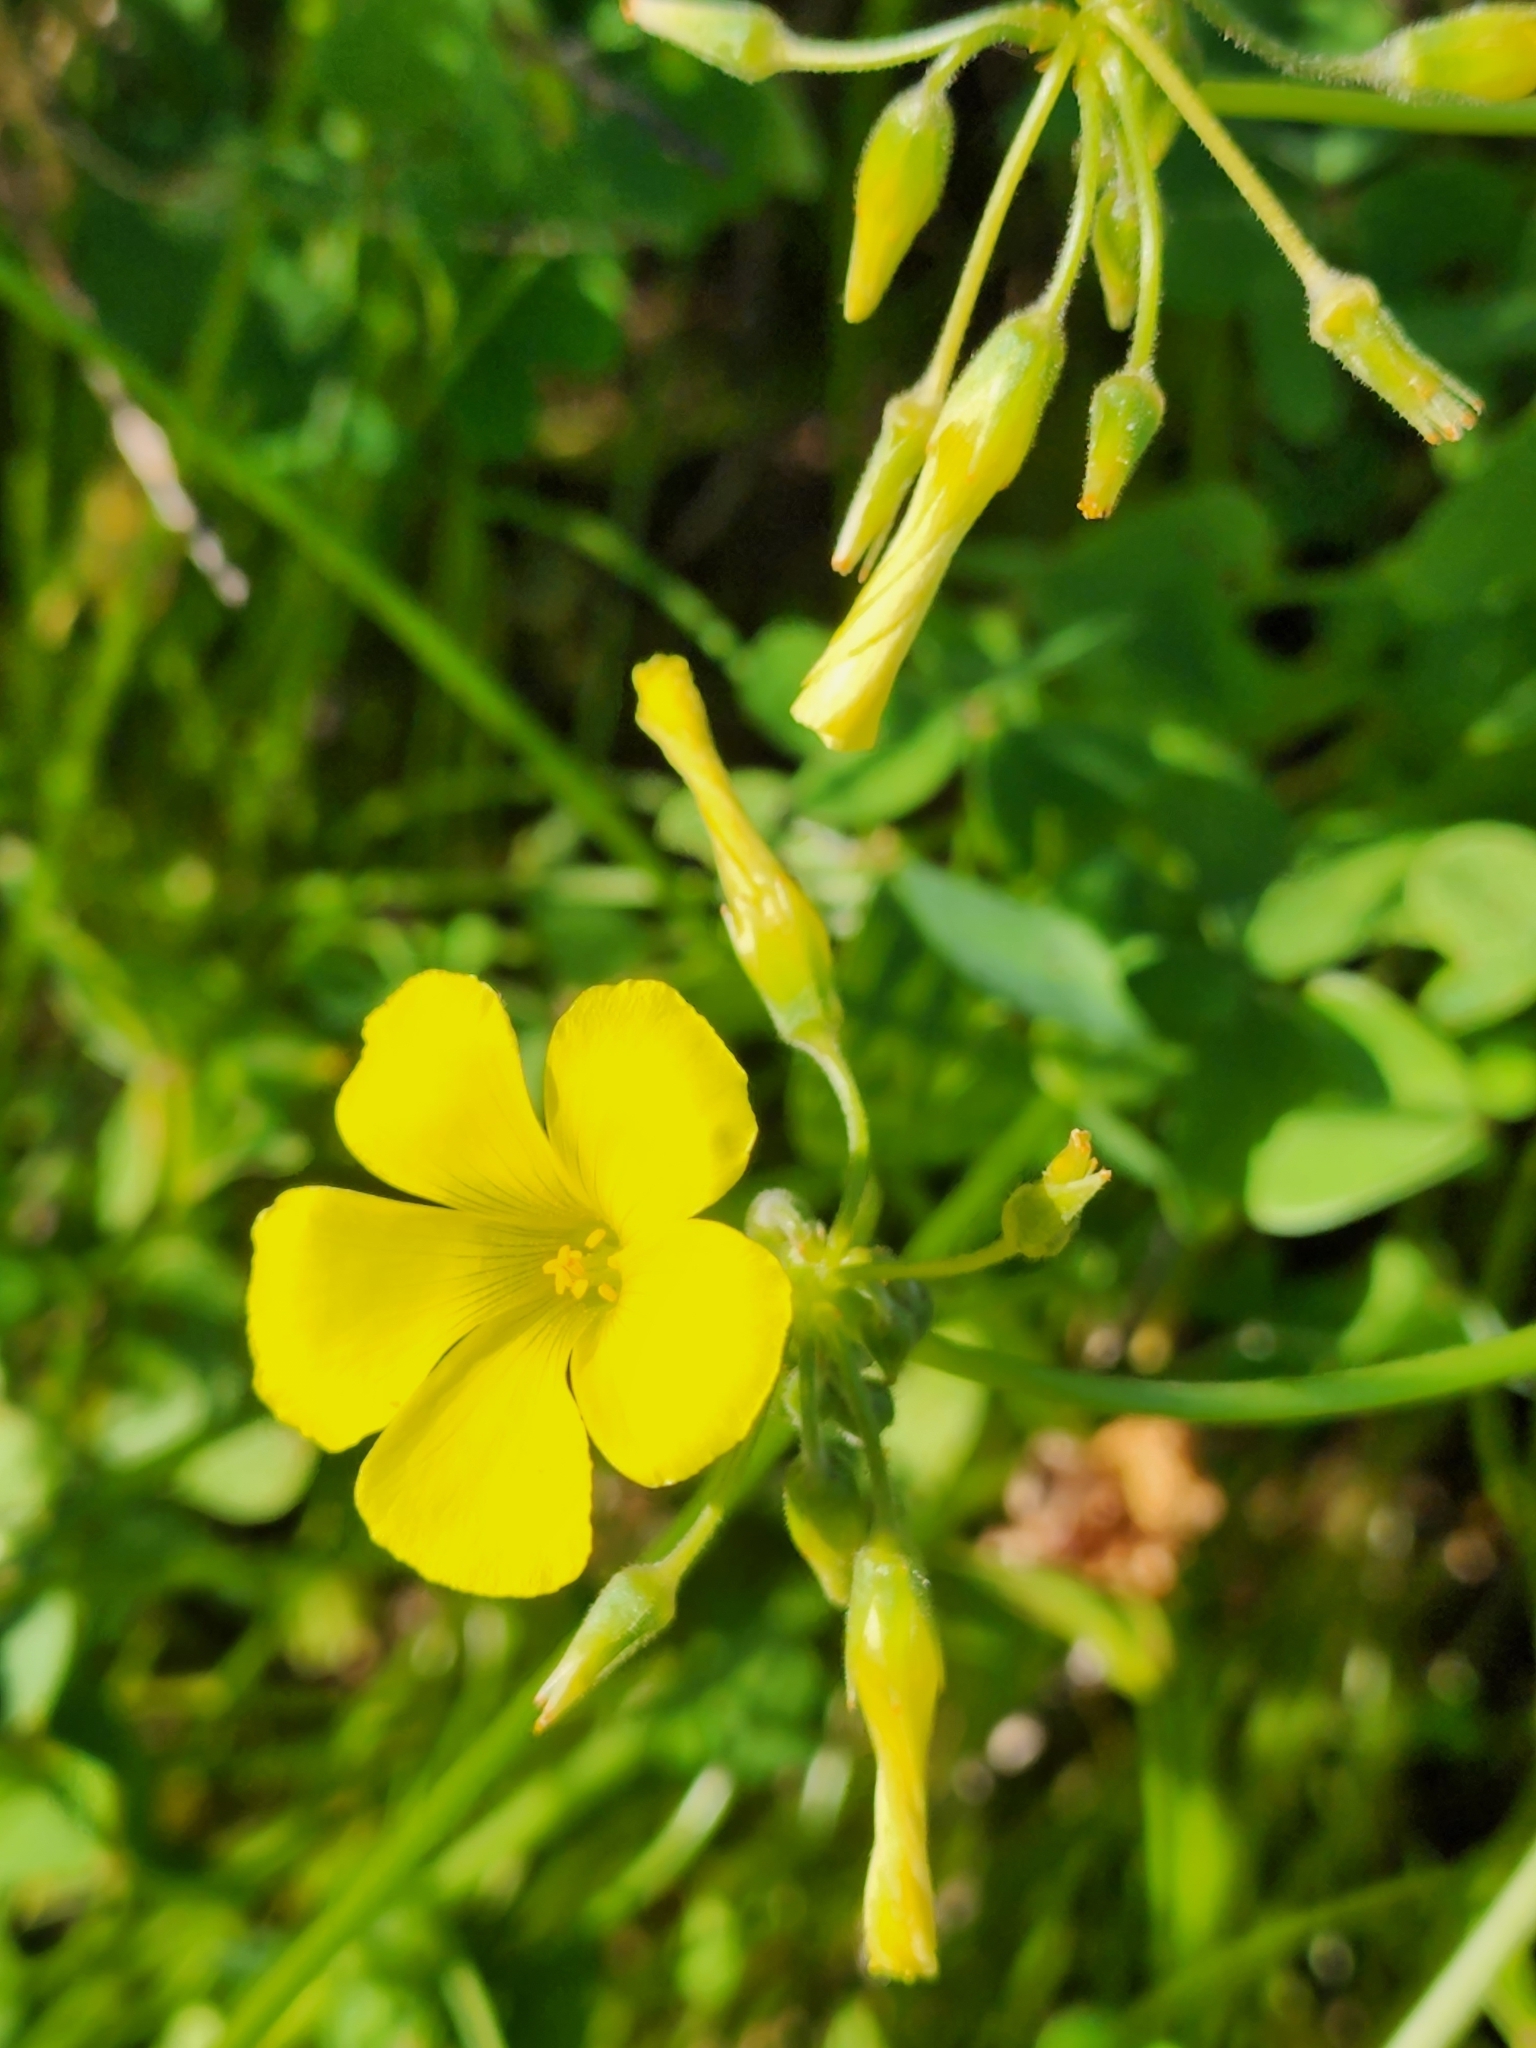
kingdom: Plantae
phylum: Tracheophyta
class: Magnoliopsida
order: Oxalidales
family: Oxalidaceae
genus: Oxalis
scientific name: Oxalis pes-caprae
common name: Bermuda-buttercup
